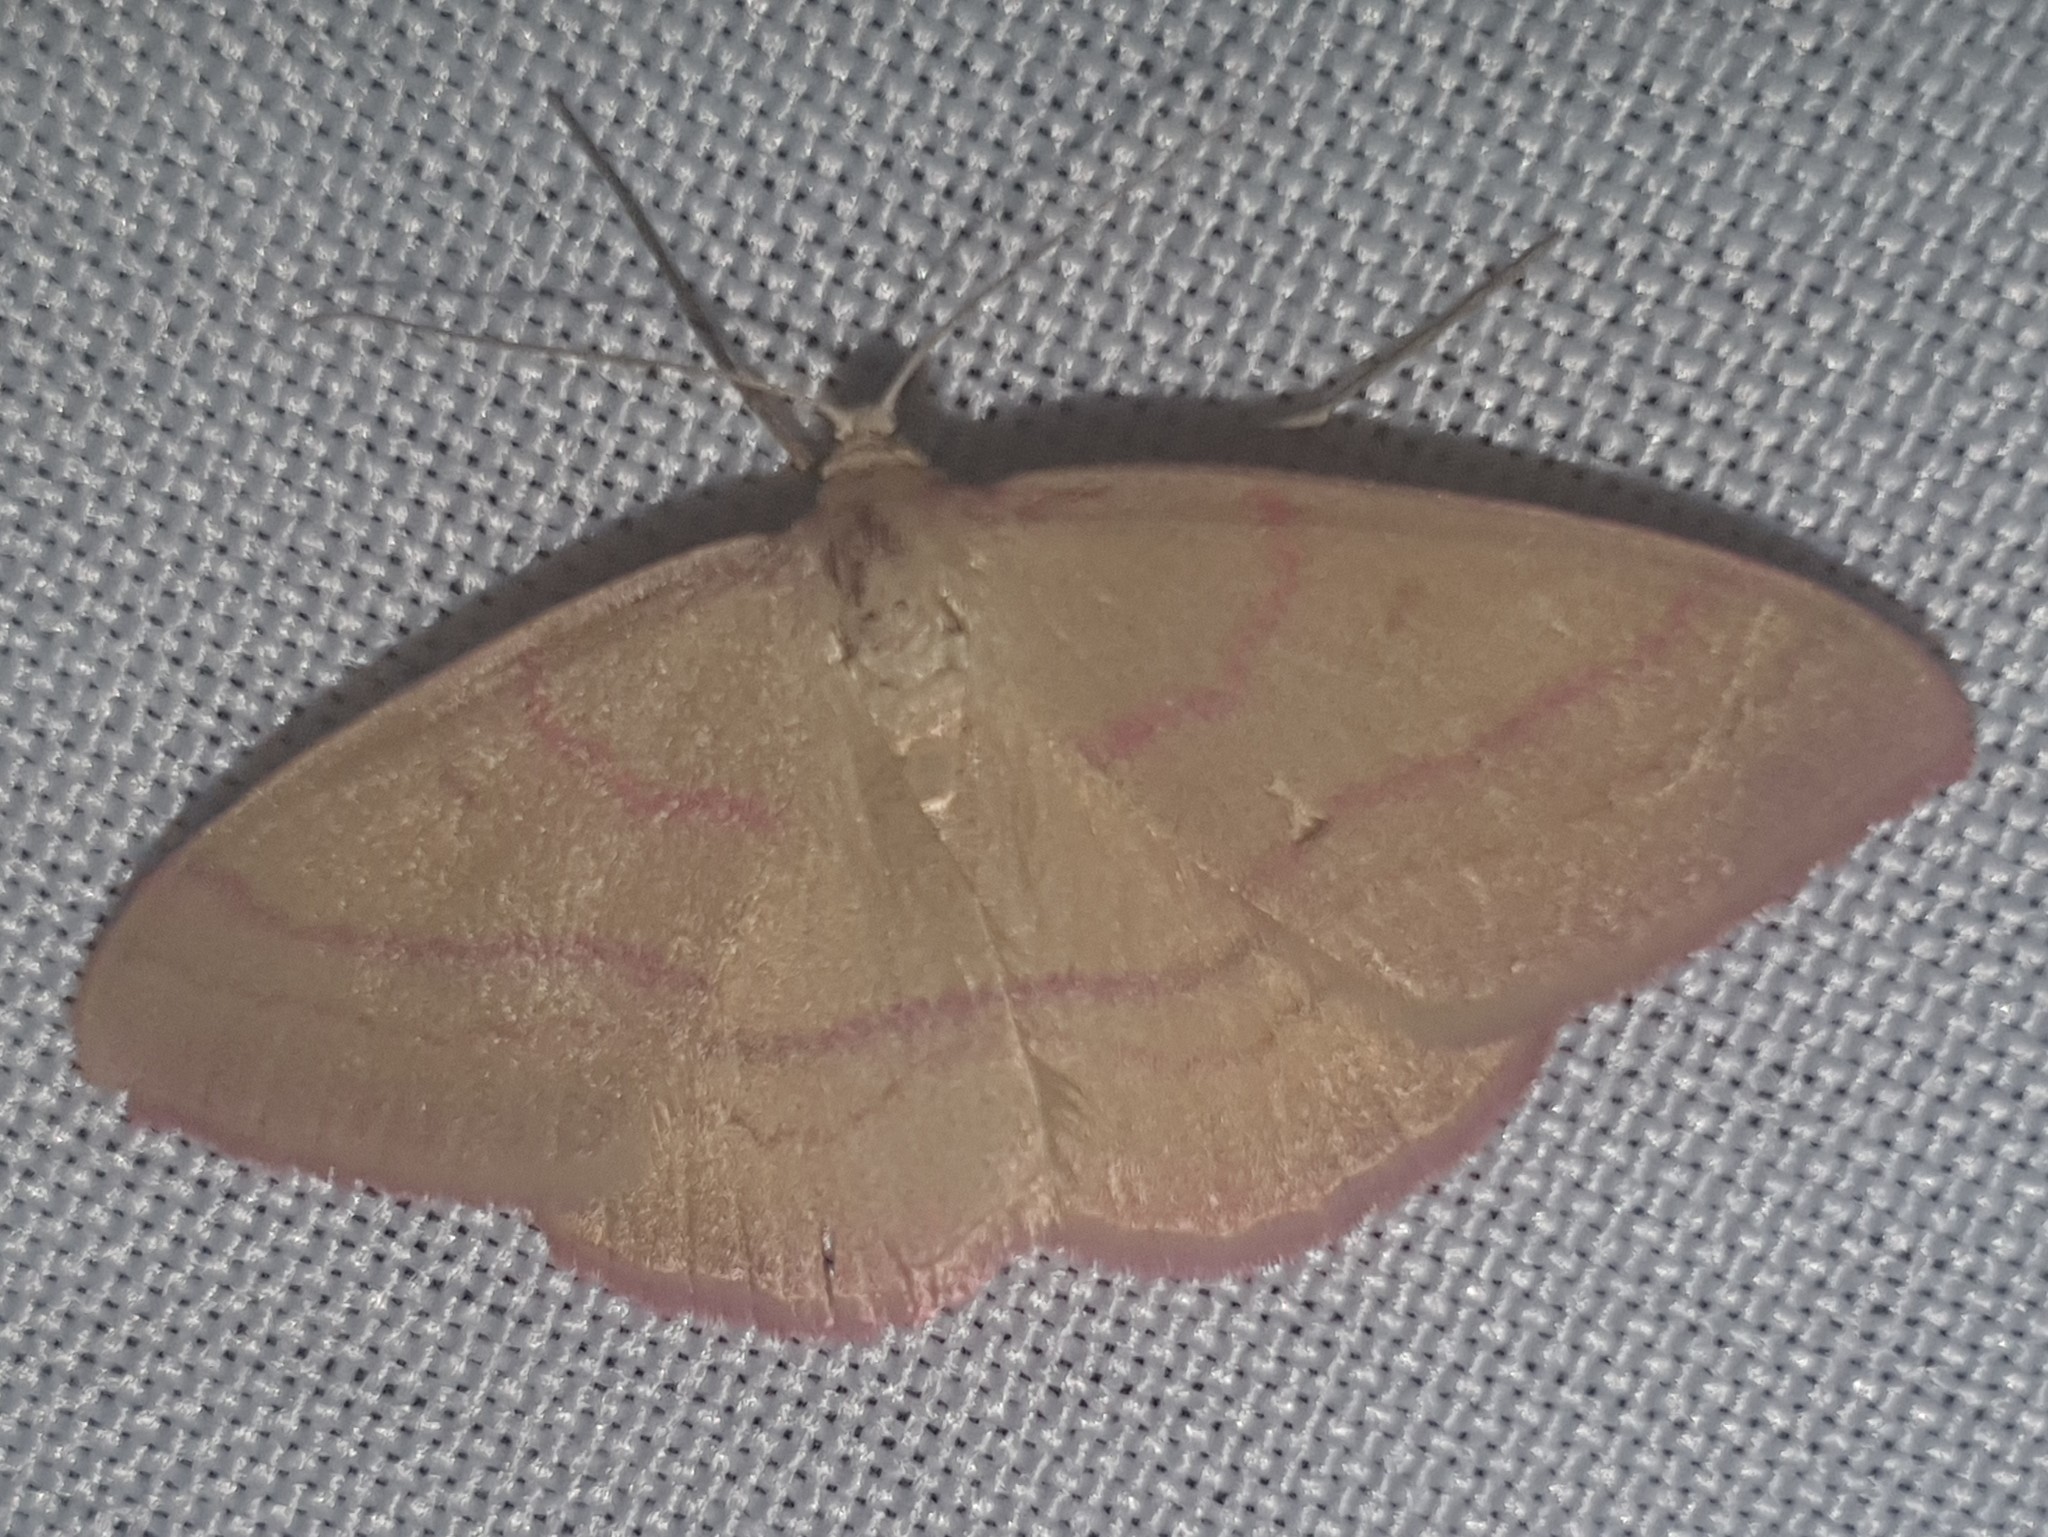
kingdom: Animalia
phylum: Arthropoda
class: Insecta
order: Lepidoptera
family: Geometridae
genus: Rhodostrophia
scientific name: Rhodostrophia calabra
